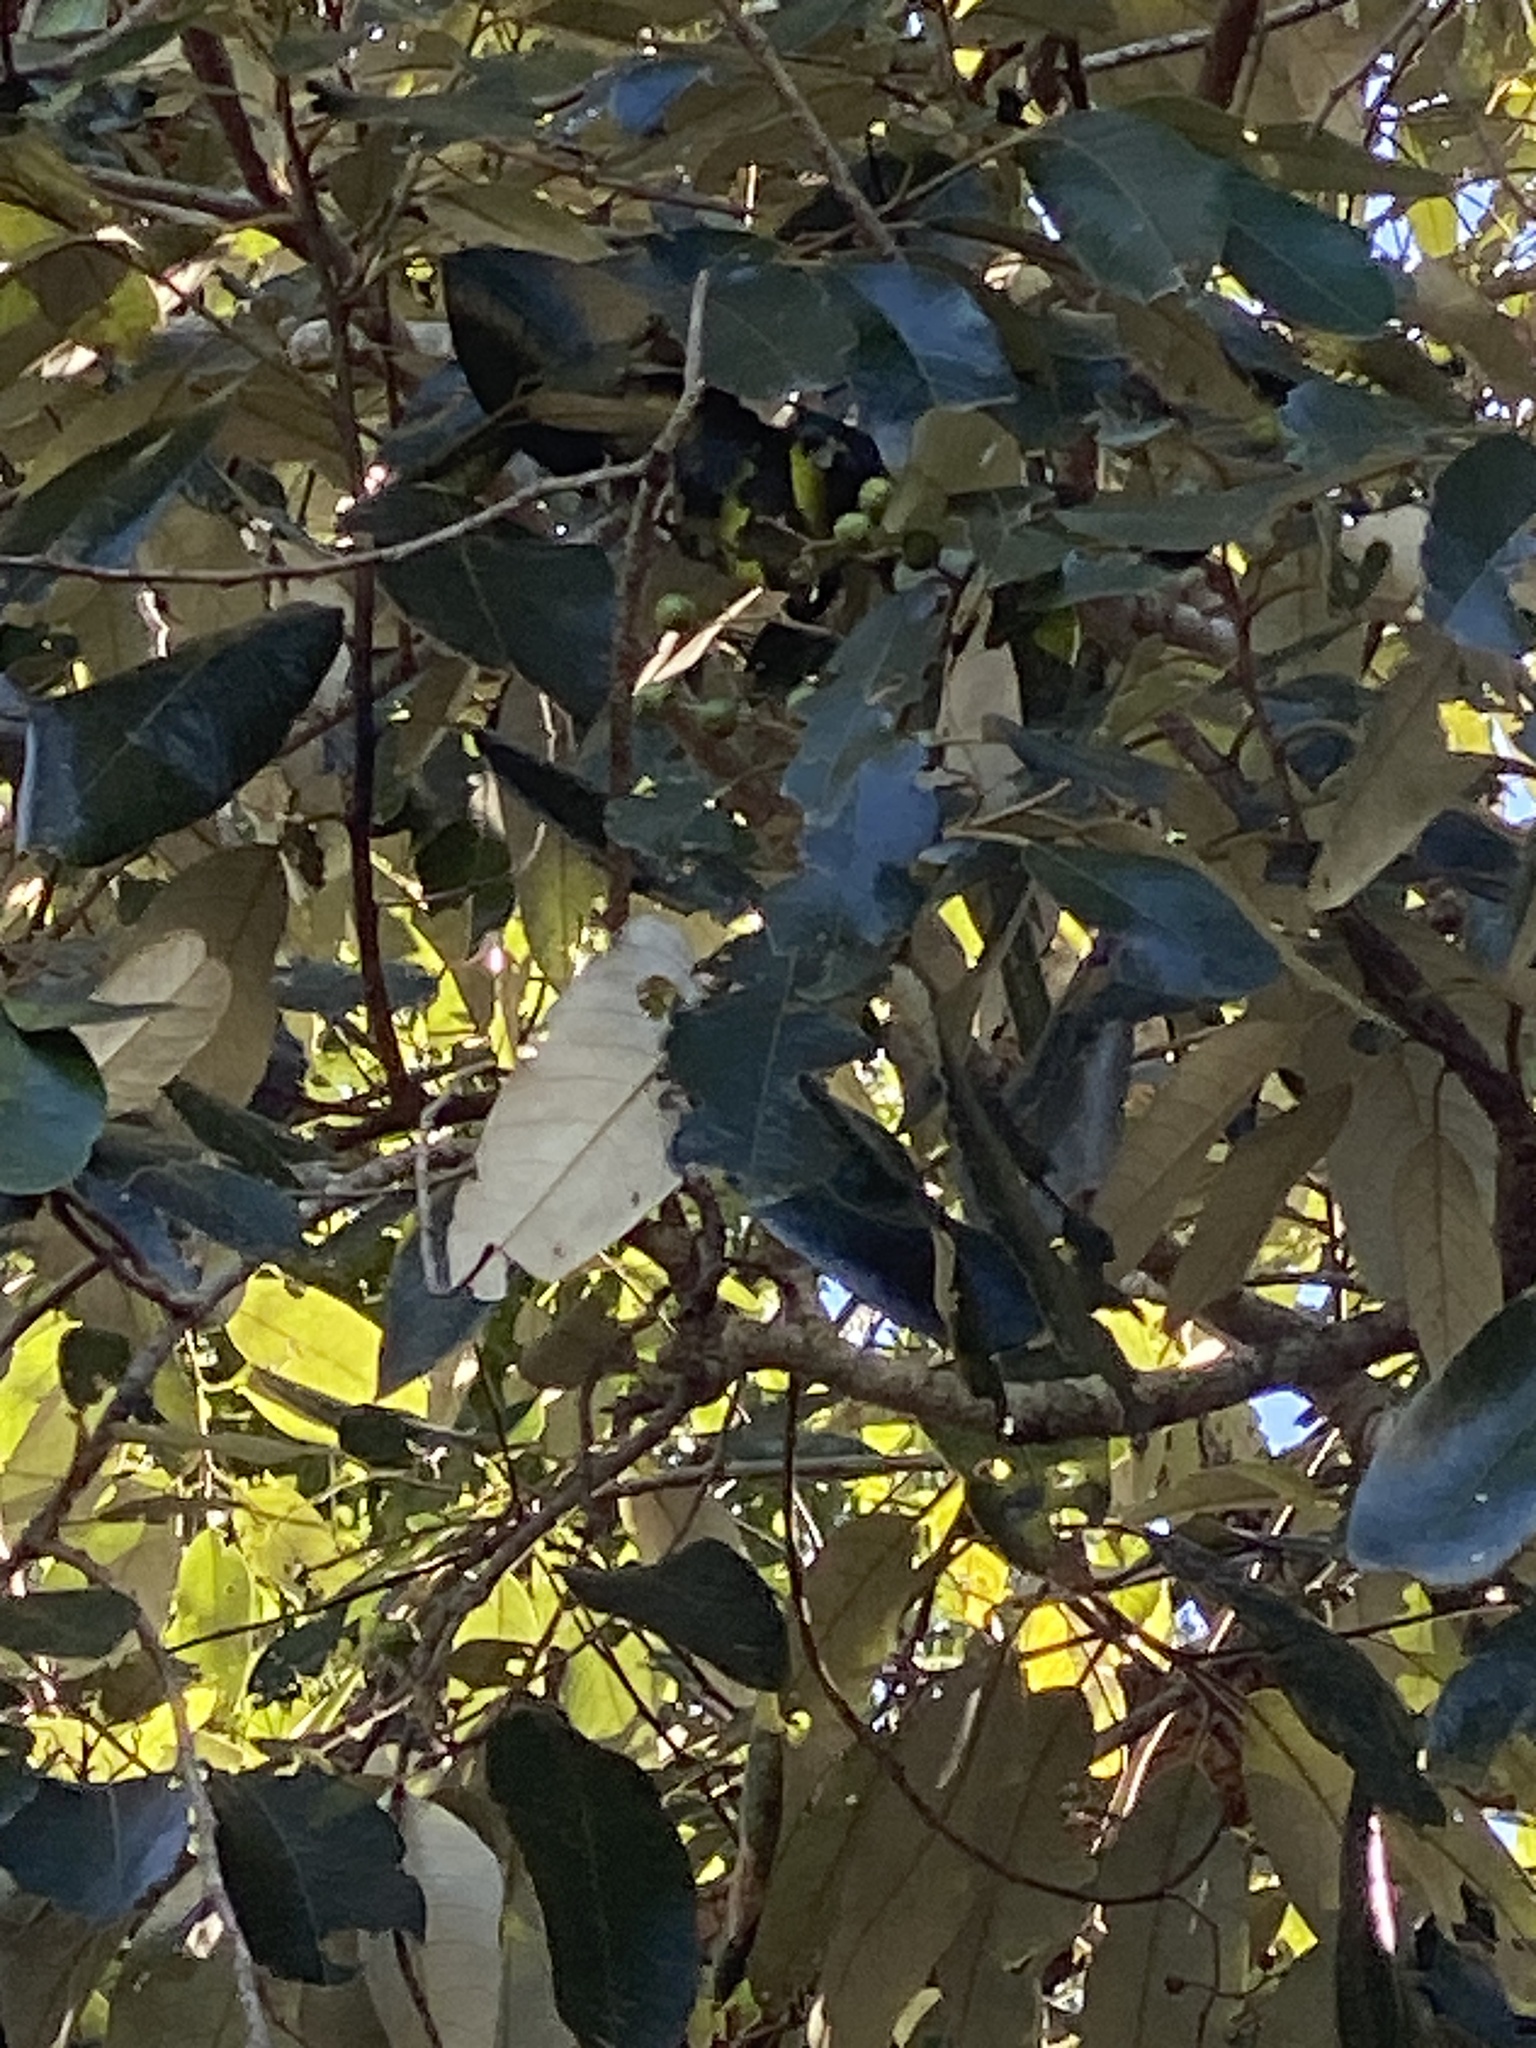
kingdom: Plantae
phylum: Tracheophyta
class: Magnoliopsida
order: Rosales
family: Rhamnaceae
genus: Alphitonia
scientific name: Alphitonia excelsa
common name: Red ash
